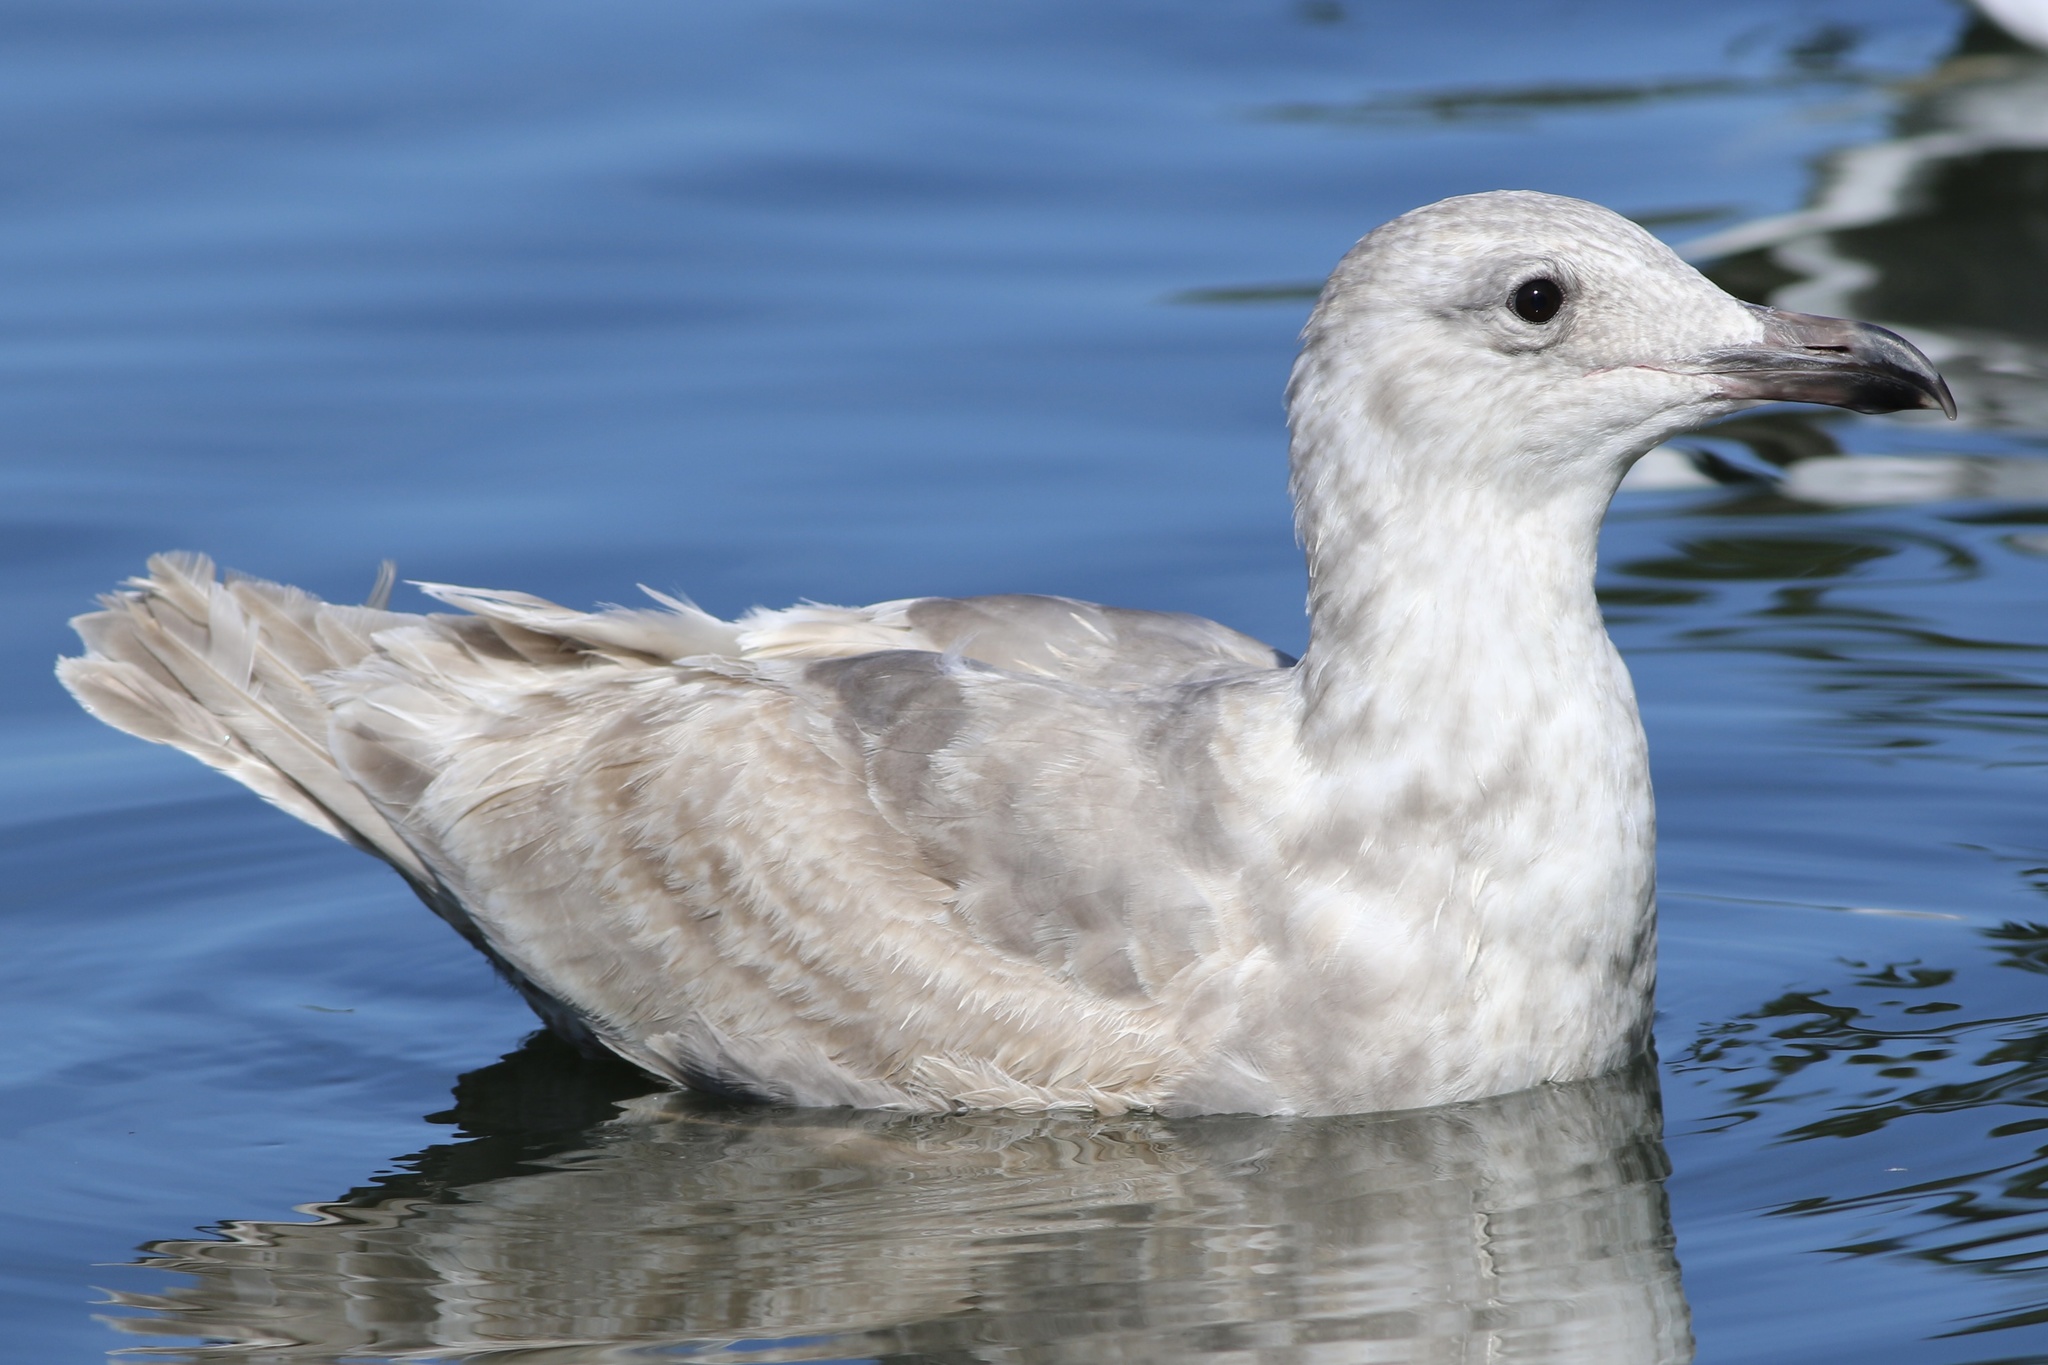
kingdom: Animalia
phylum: Chordata
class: Aves
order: Charadriiformes
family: Laridae
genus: Larus
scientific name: Larus glaucescens
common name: Glaucous-winged gull
